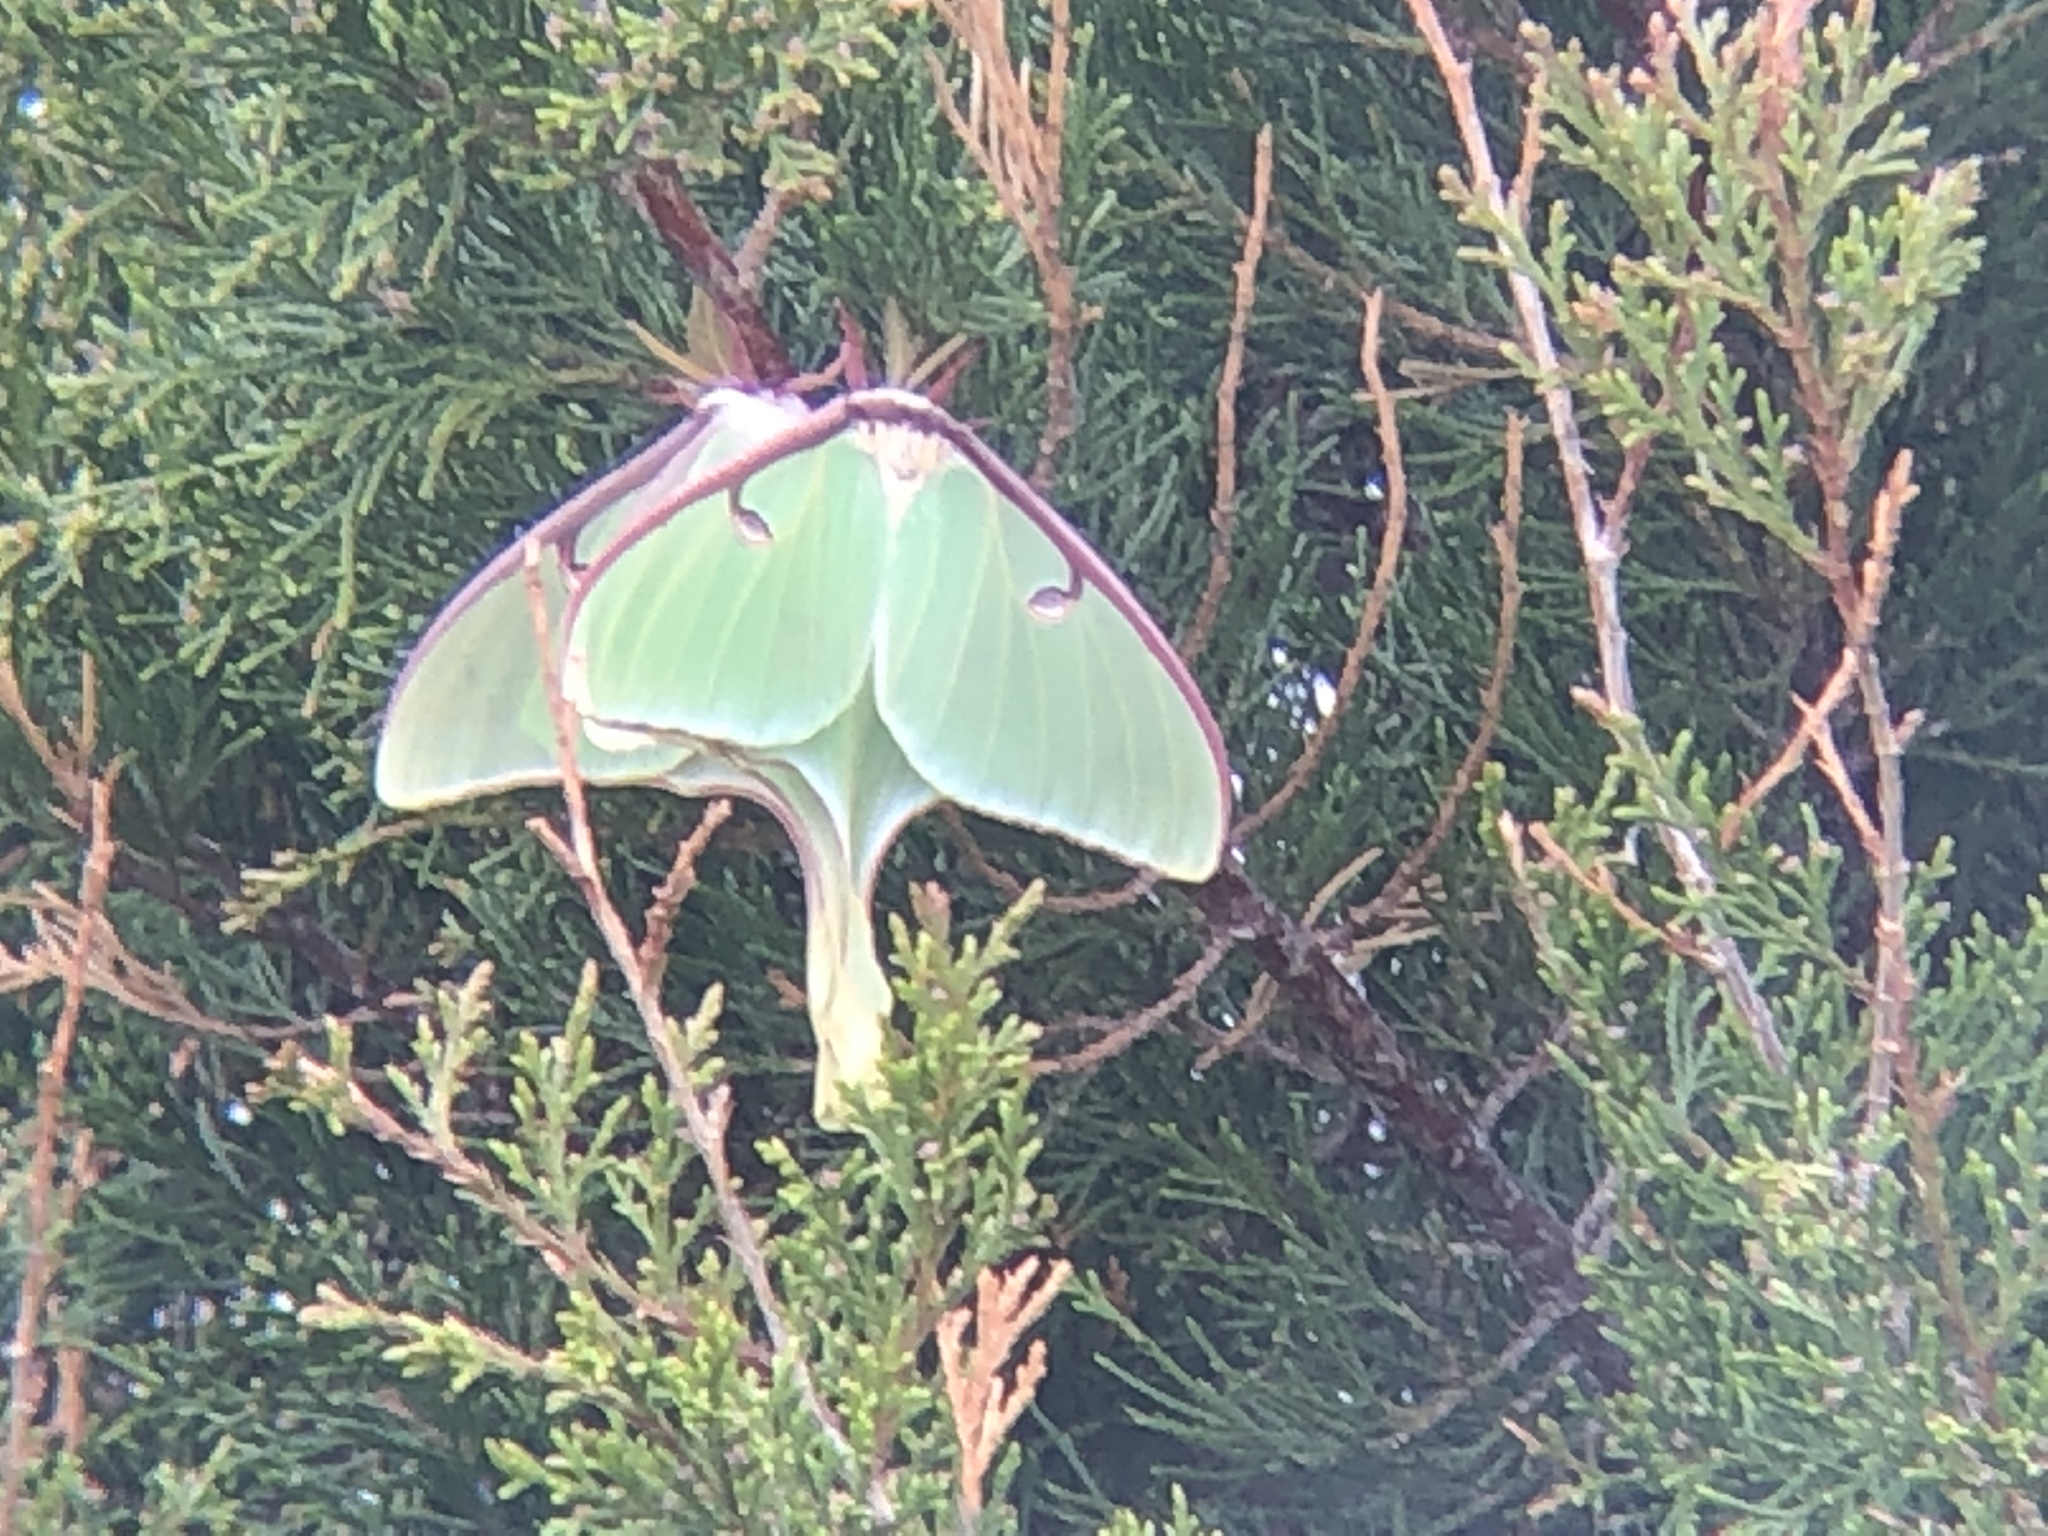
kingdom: Animalia
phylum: Arthropoda
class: Insecta
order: Lepidoptera
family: Saturniidae
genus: Actias
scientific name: Actias luna
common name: Luna moth
